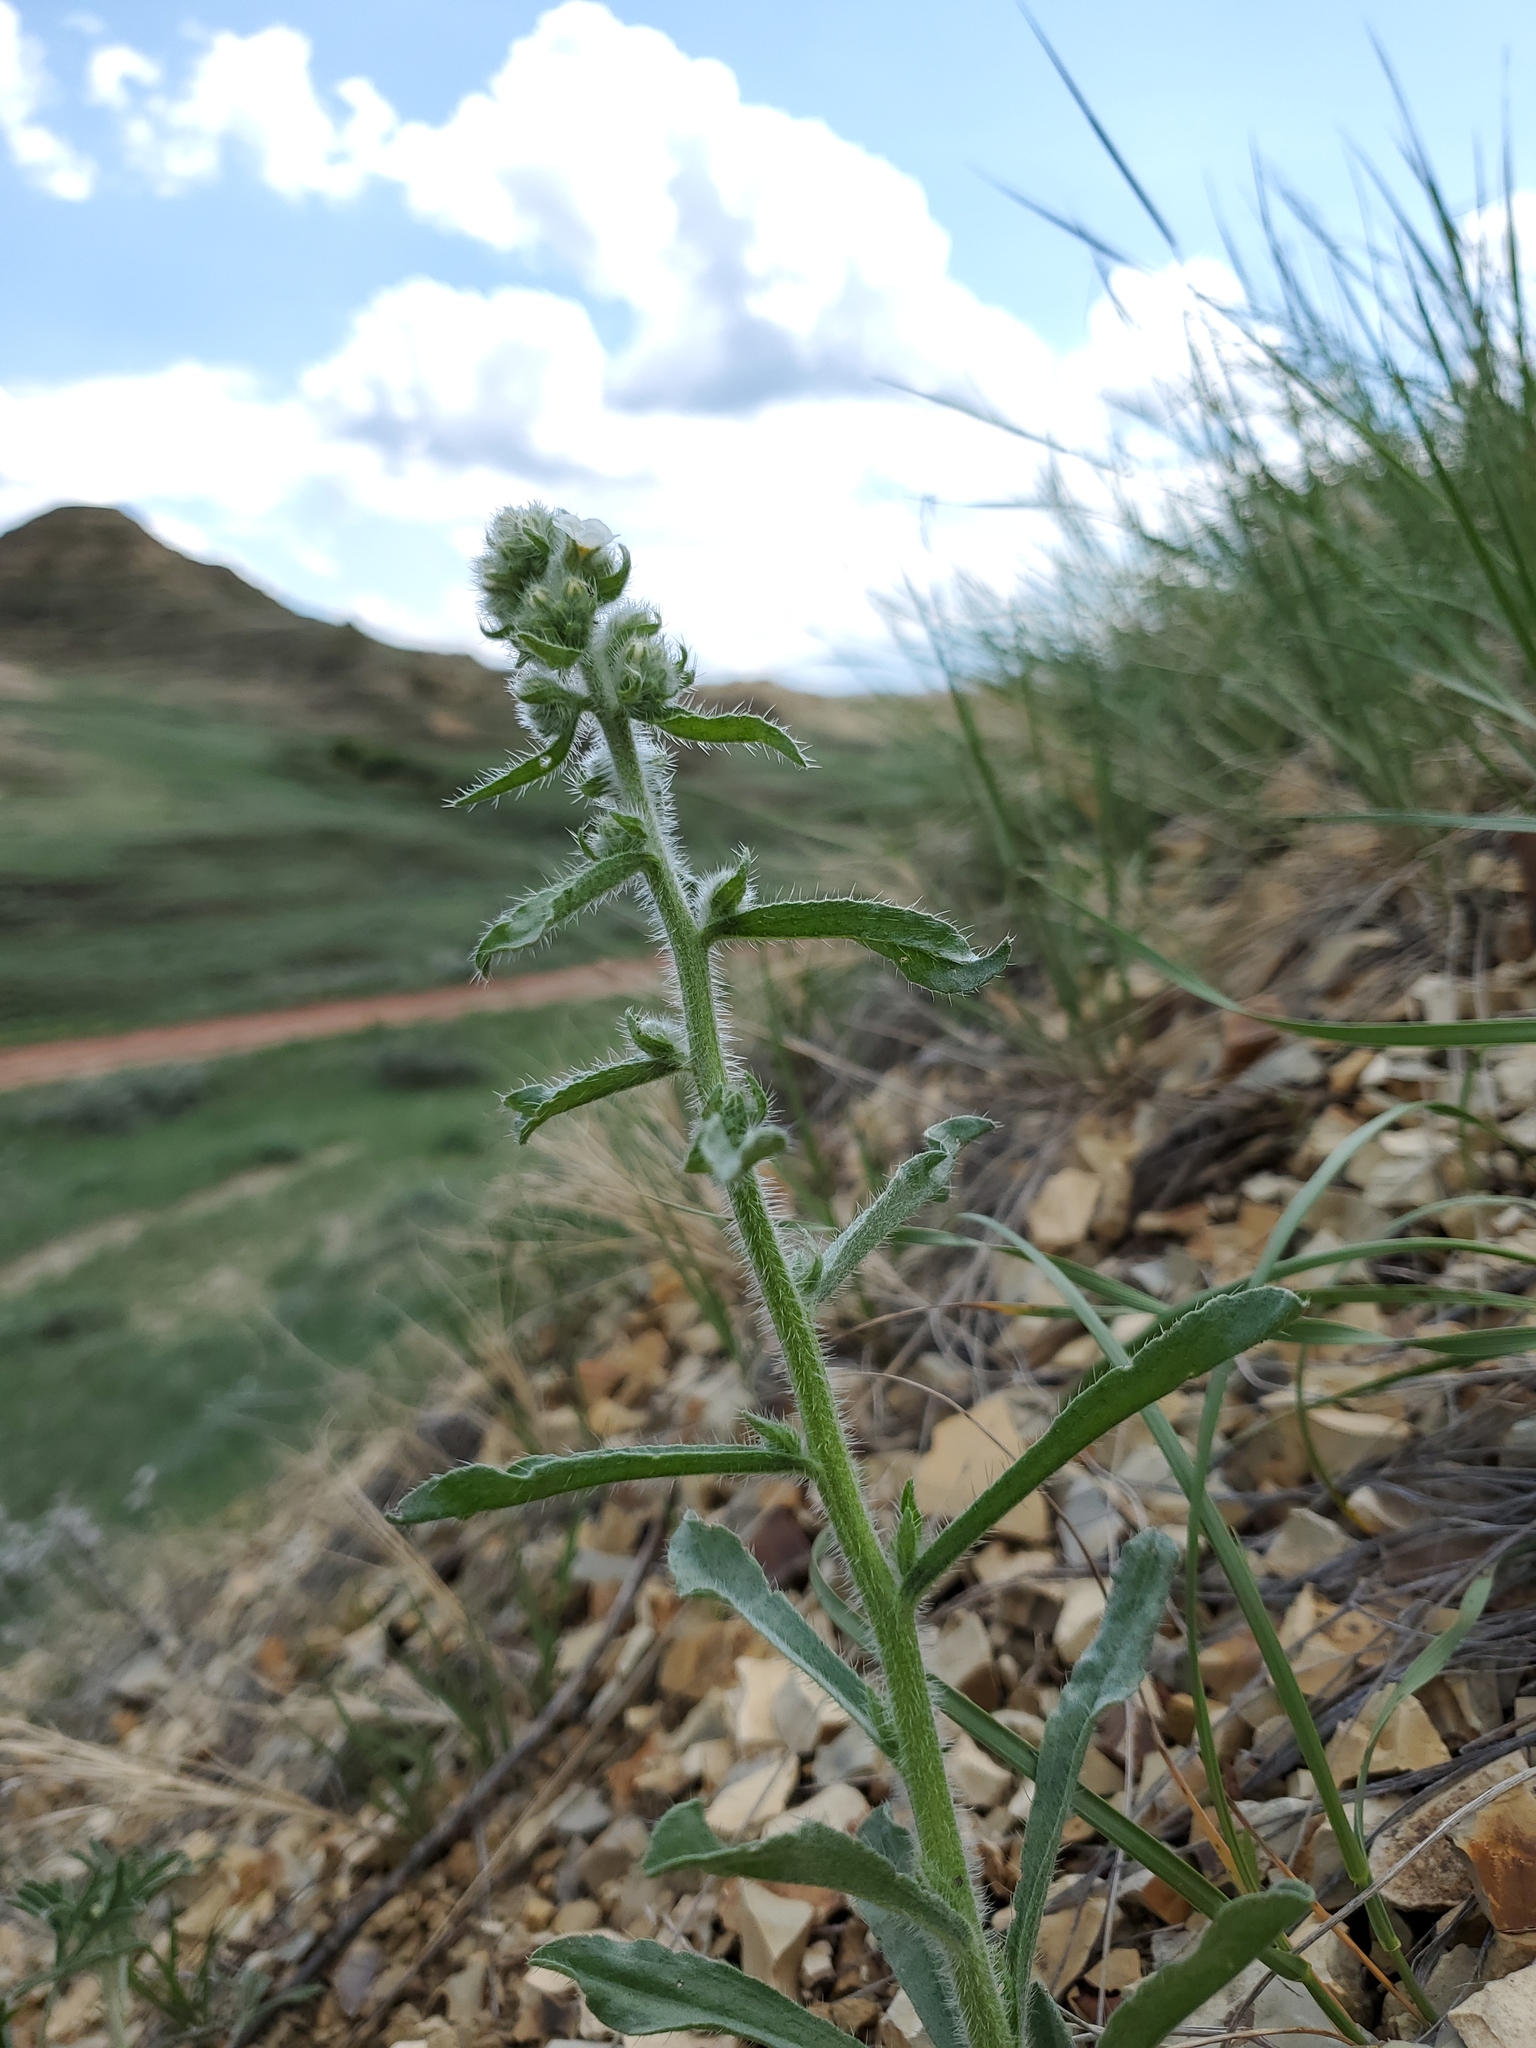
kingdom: Plantae
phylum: Tracheophyta
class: Magnoliopsida
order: Boraginales
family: Boraginaceae
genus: Oreocarya
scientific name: Oreocarya glomerata
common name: Macoun's cryptantha
